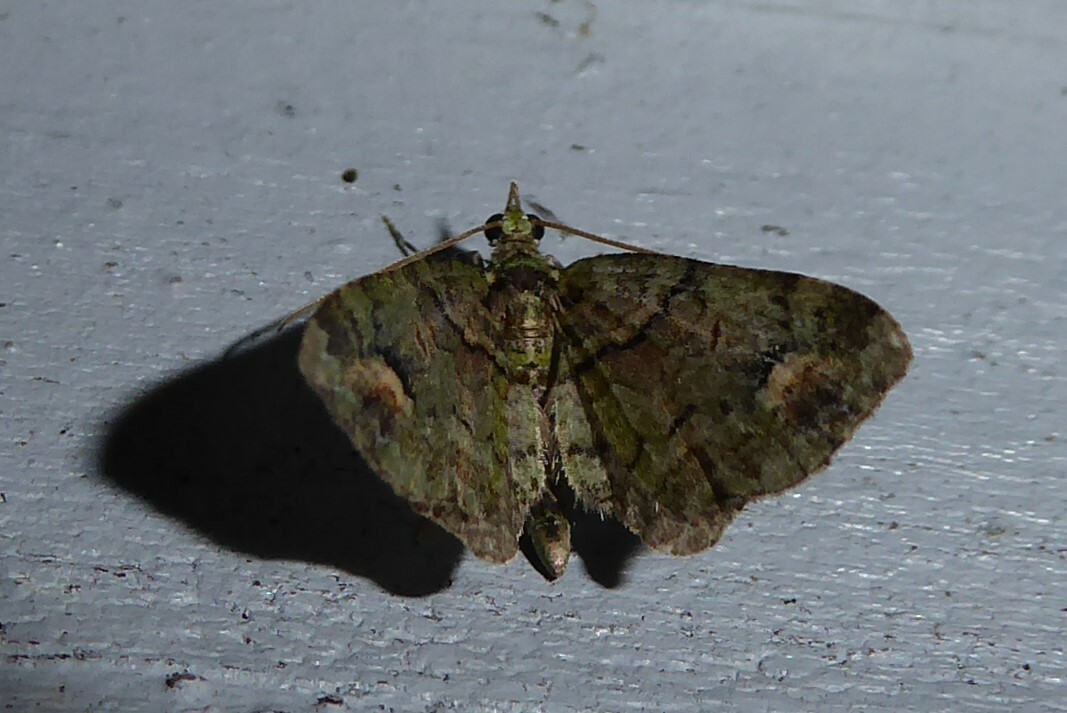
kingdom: Animalia
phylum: Arthropoda
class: Insecta
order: Lepidoptera
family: Geometridae
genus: Idaea
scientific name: Idaea mutanda
